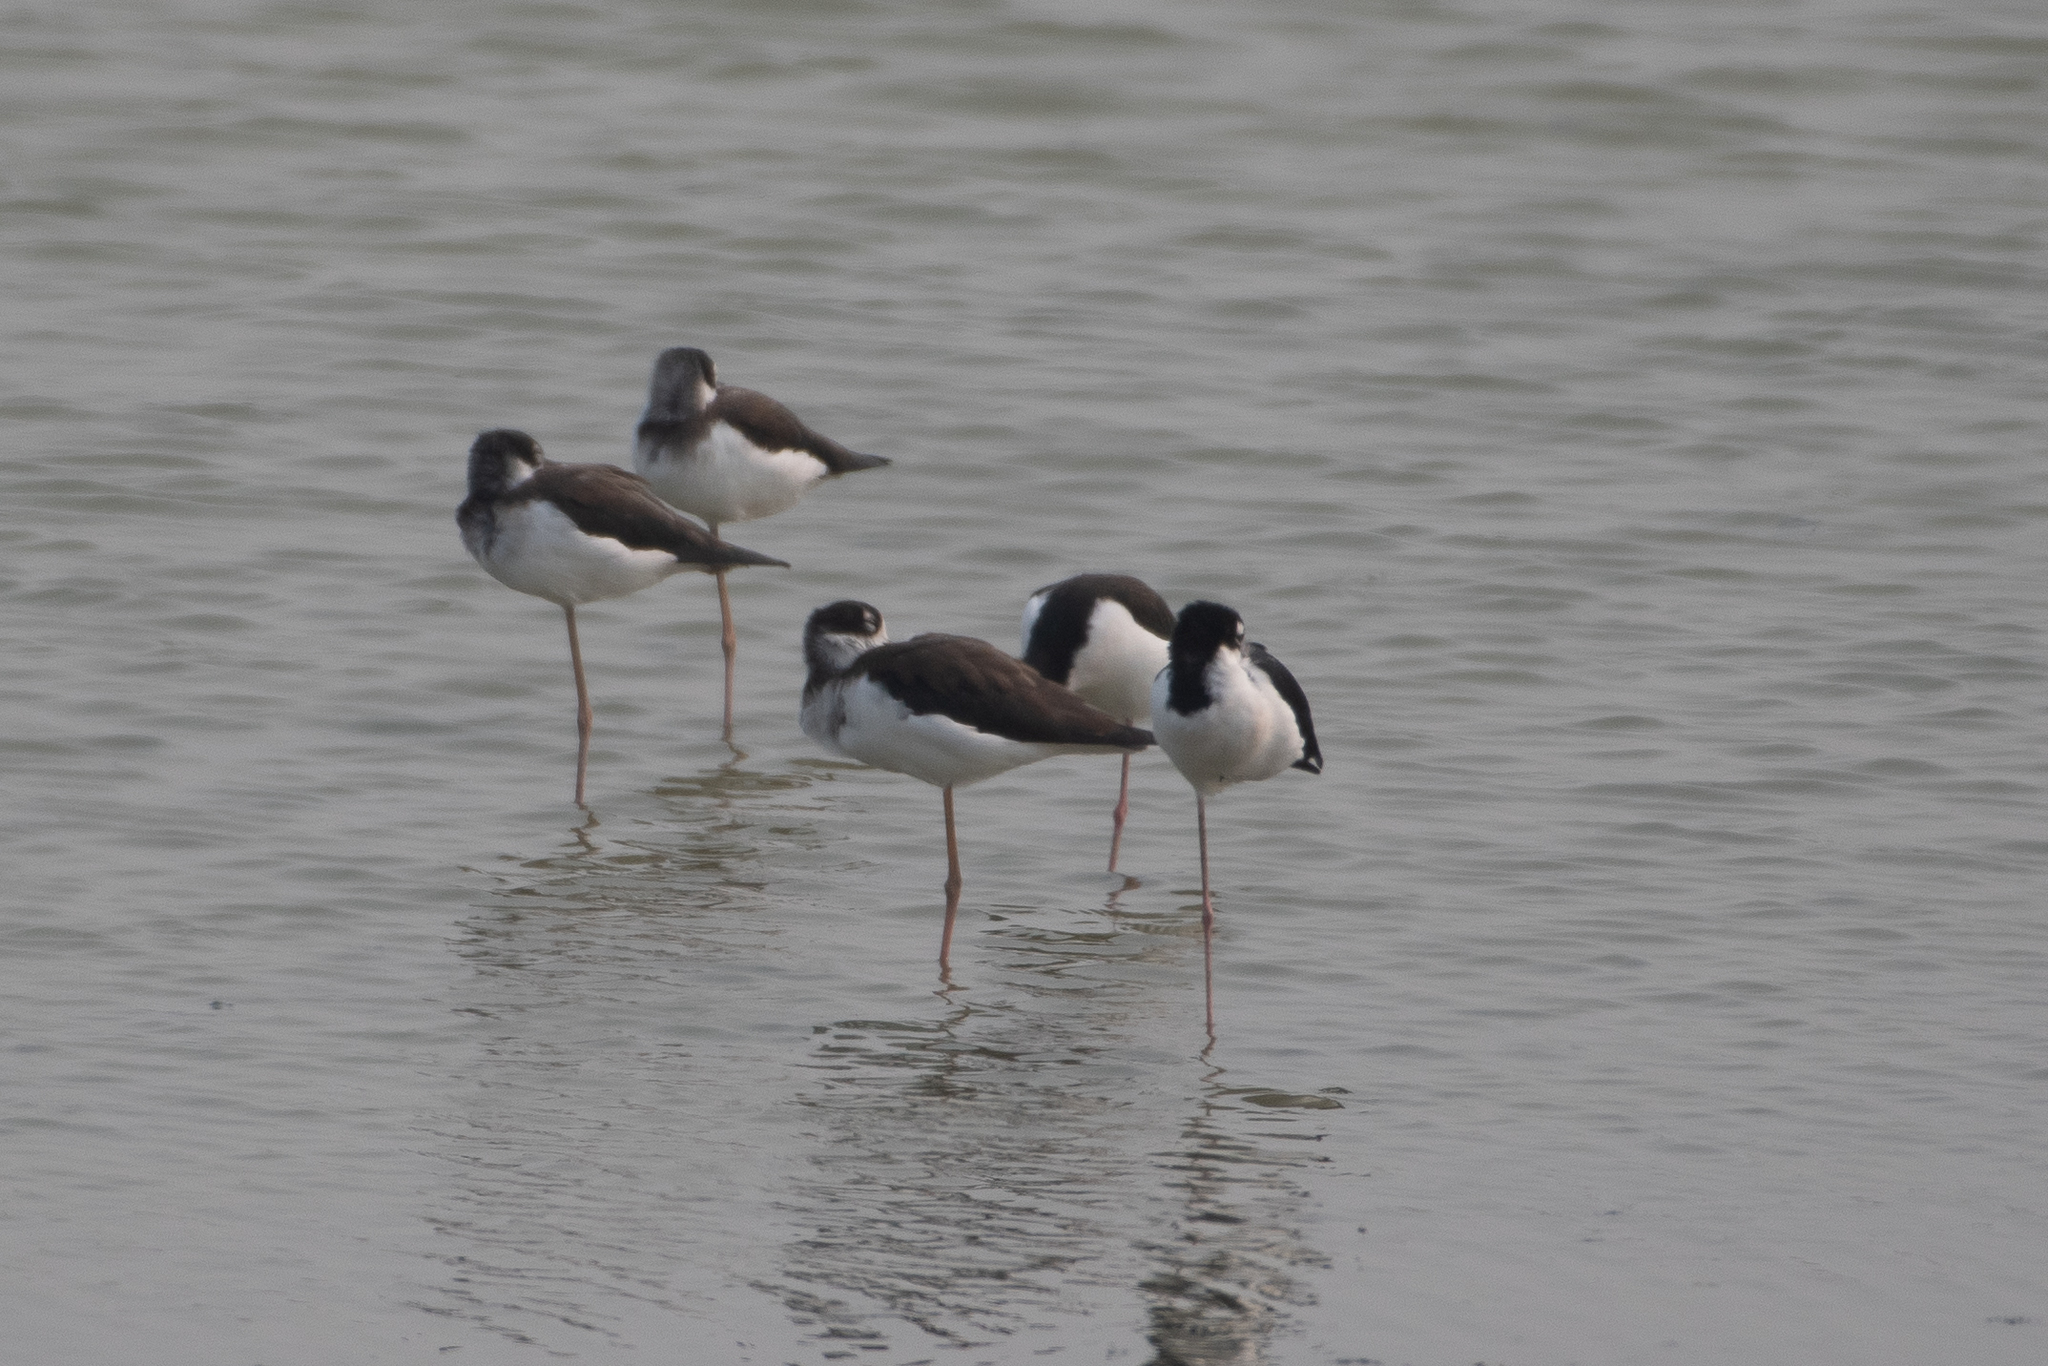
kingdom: Animalia
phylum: Chordata
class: Aves
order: Charadriiformes
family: Recurvirostridae
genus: Himantopus
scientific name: Himantopus mexicanus
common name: Black-necked stilt
